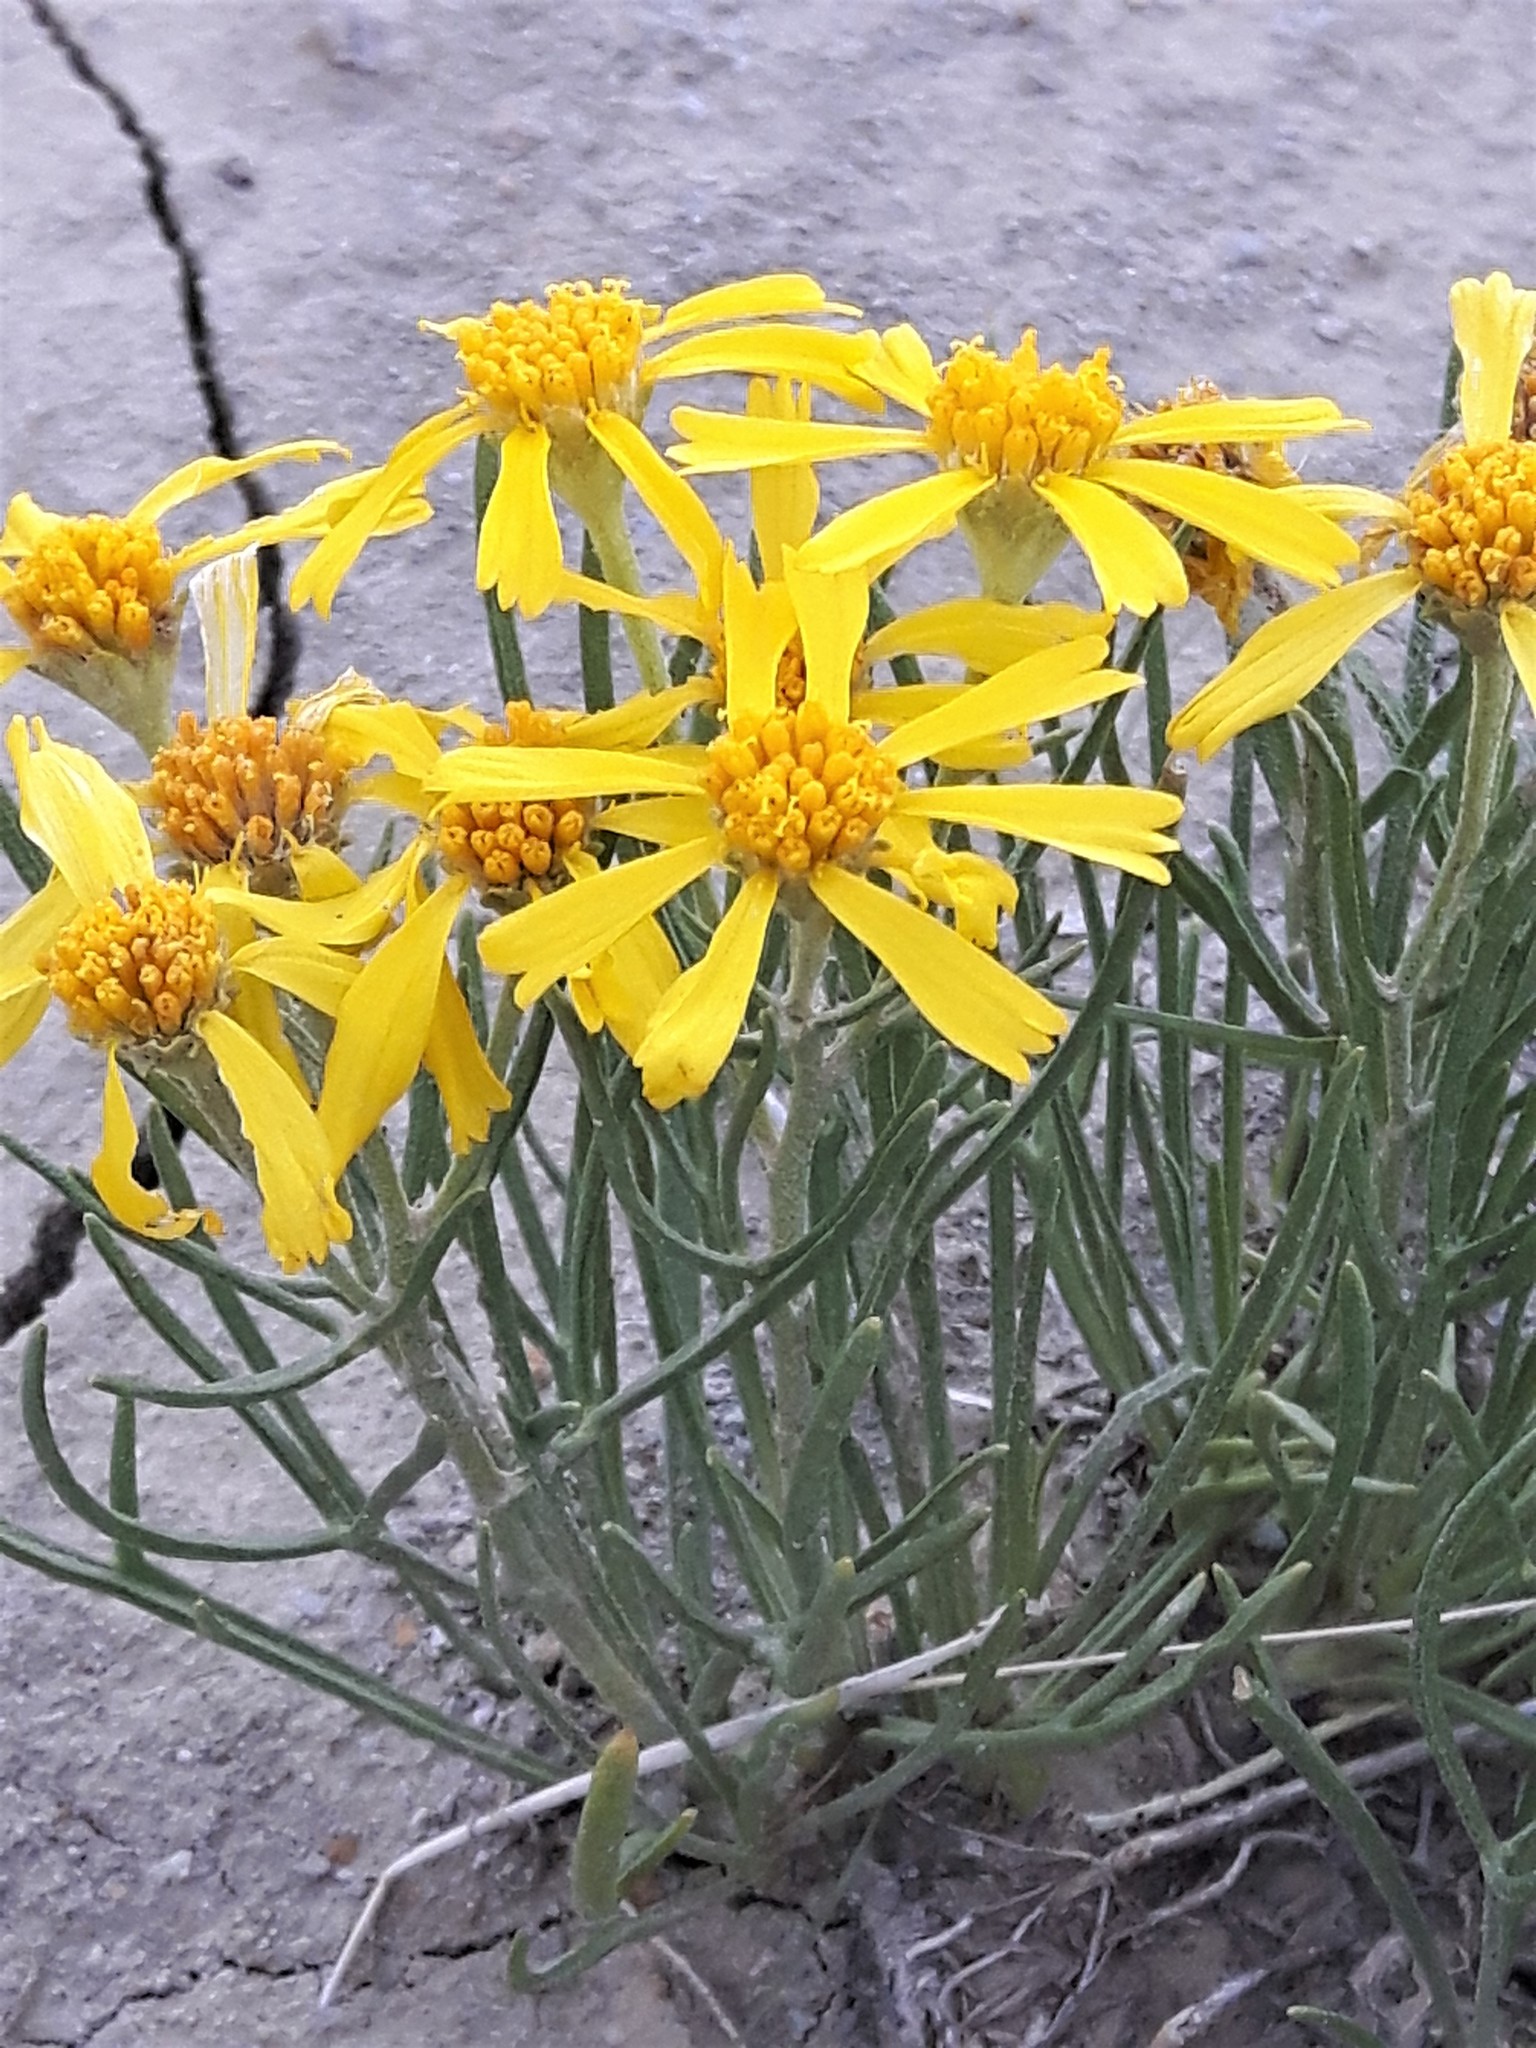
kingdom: Plantae
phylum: Tracheophyta
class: Magnoliopsida
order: Asterales
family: Asteraceae
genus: Hymenoxys
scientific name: Hymenoxys richardsonii
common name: Pingue rubberweed
